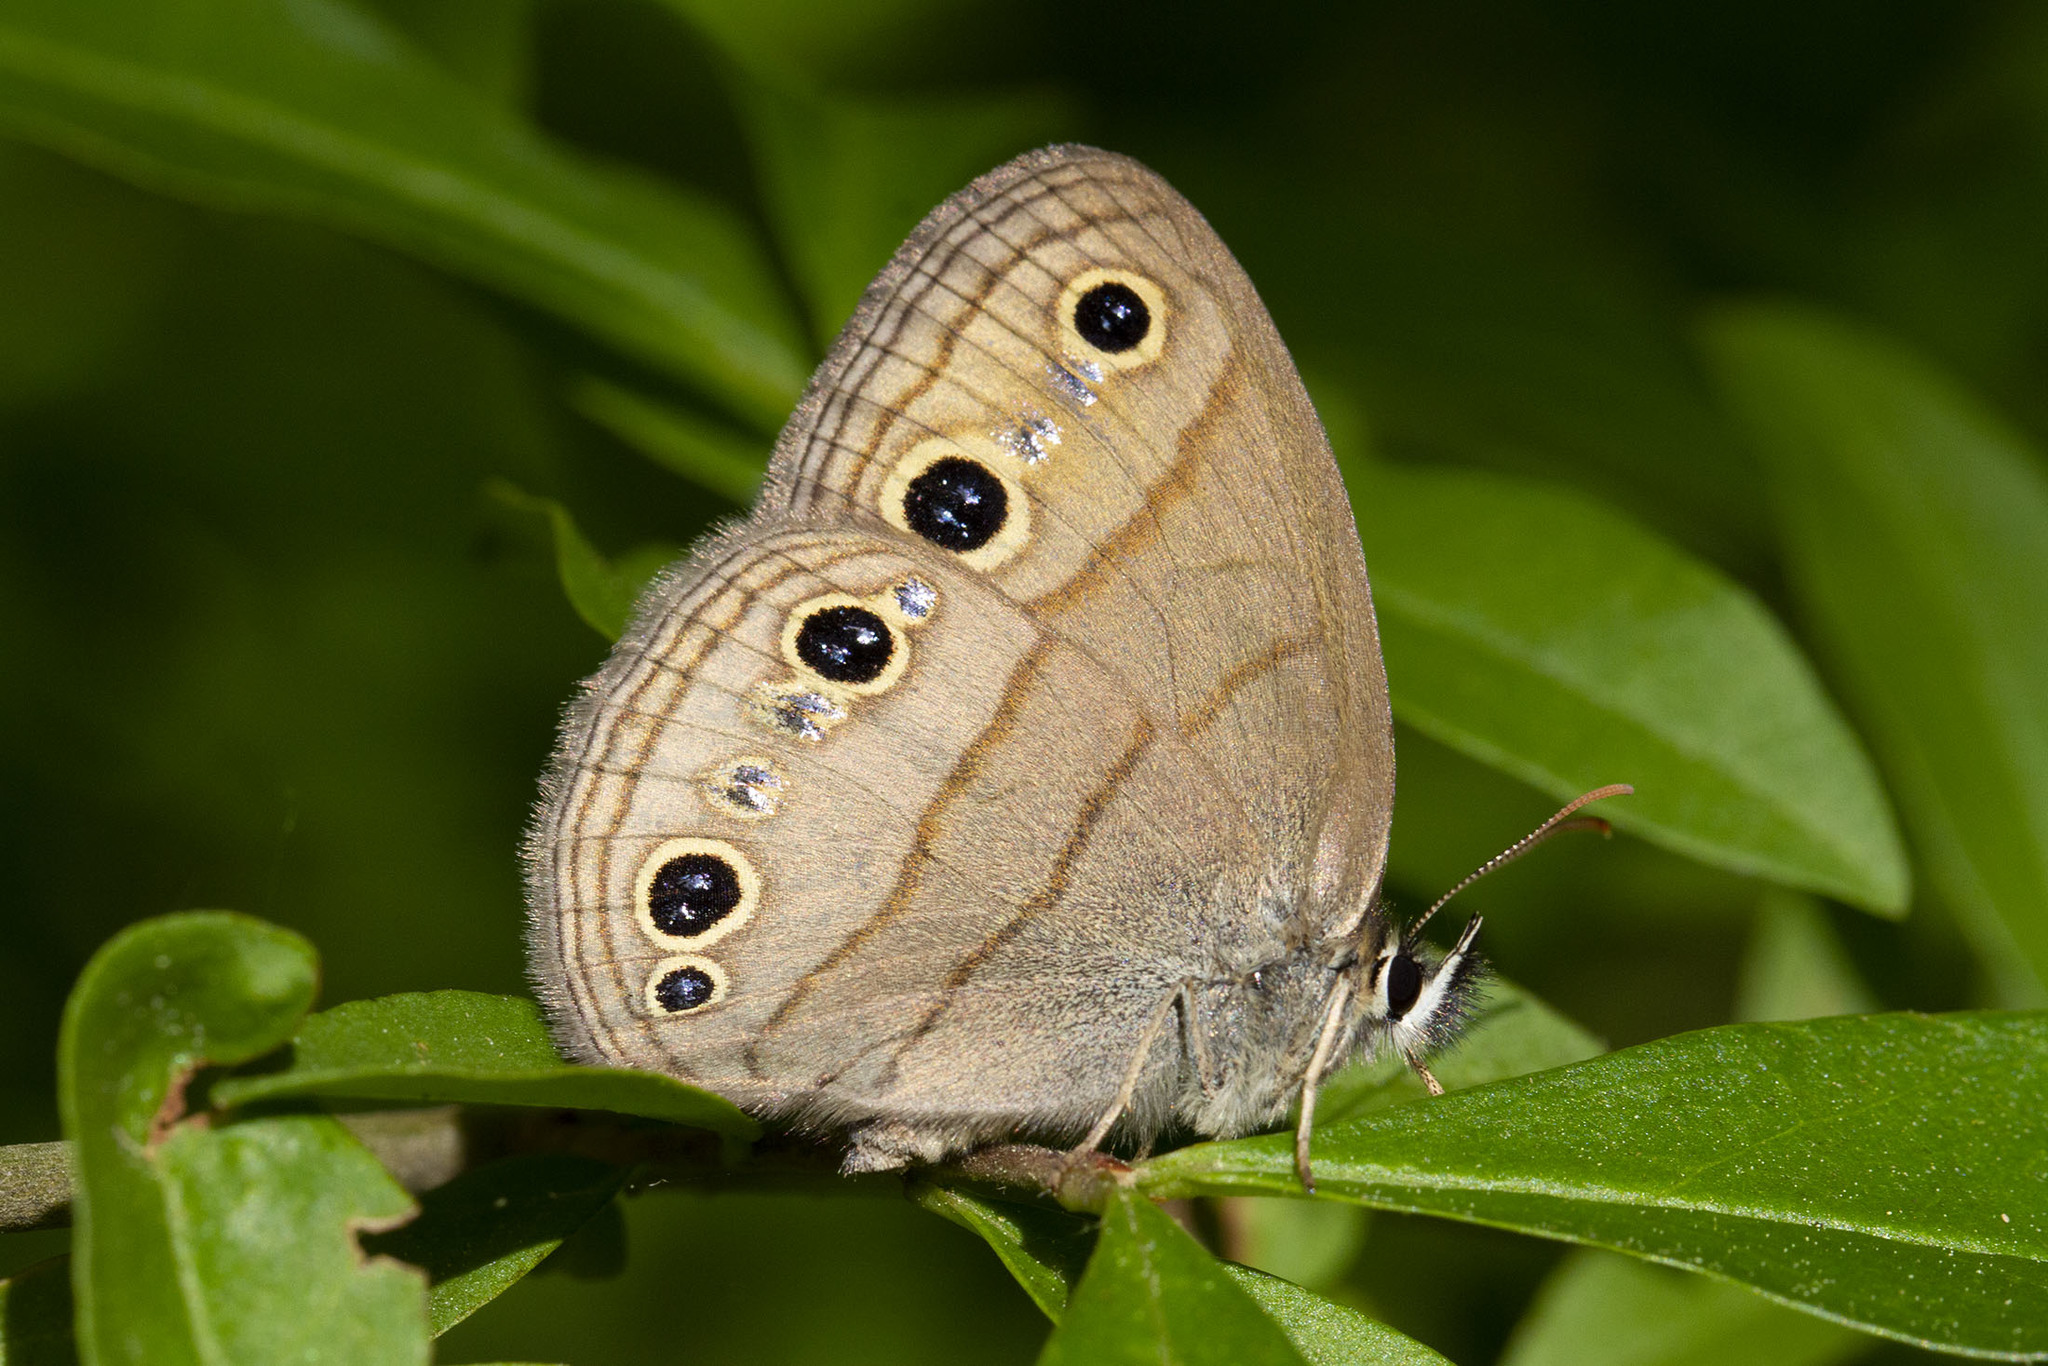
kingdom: Animalia
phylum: Arthropoda
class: Insecta
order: Lepidoptera
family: Nymphalidae
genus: Euptychia
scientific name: Euptychia cymela
